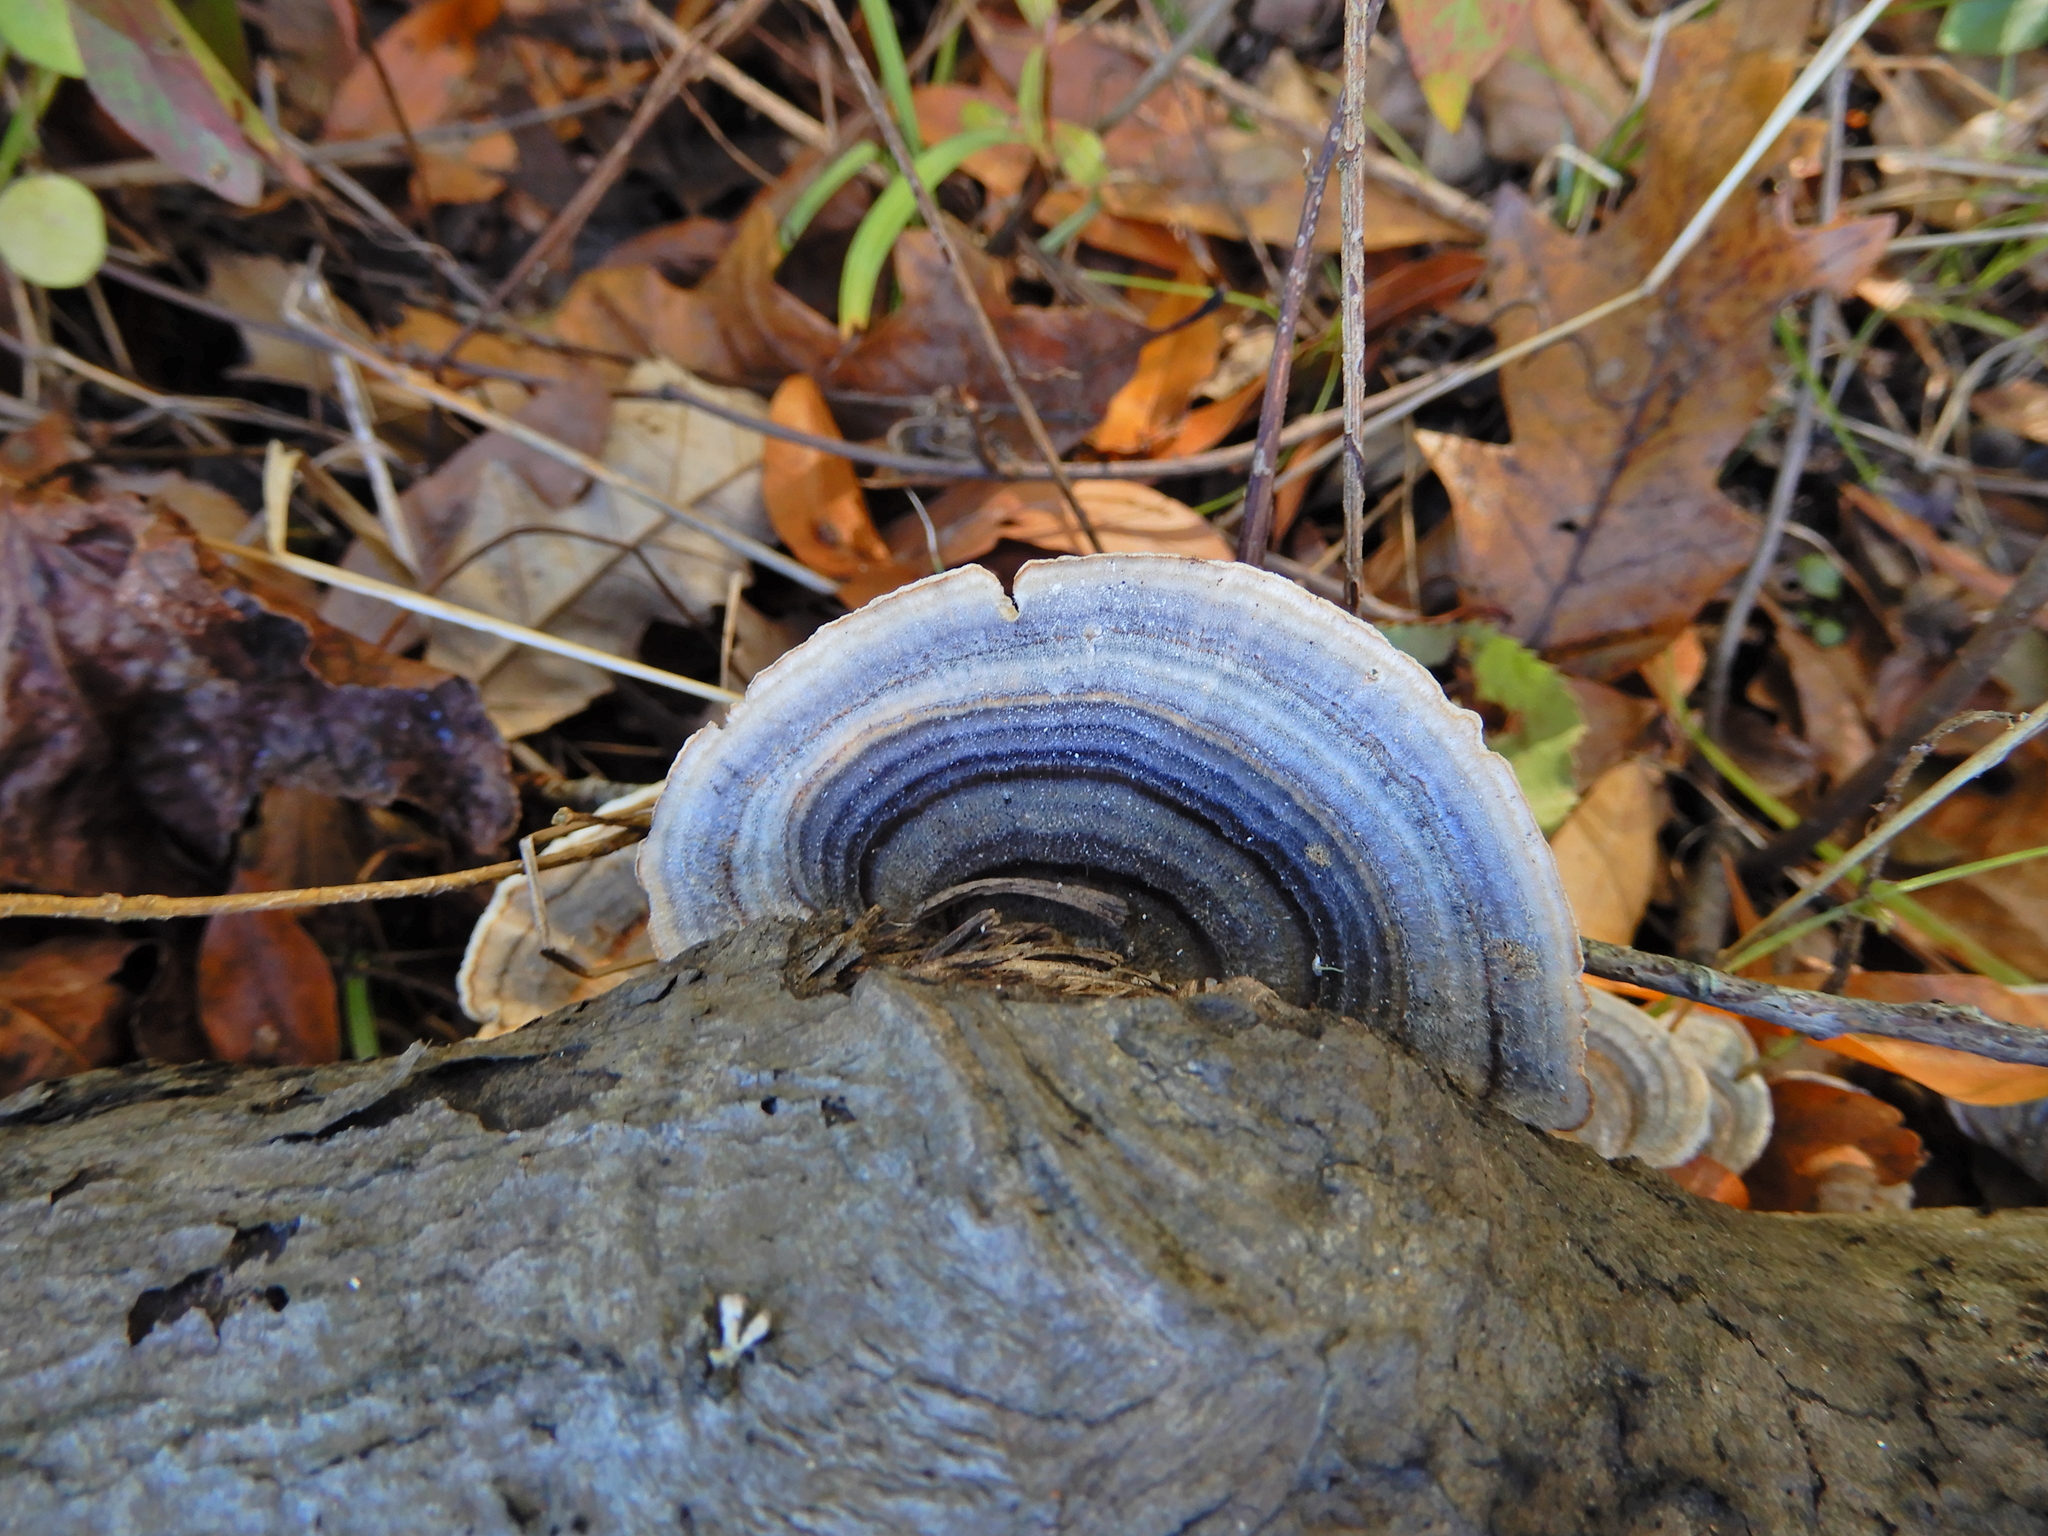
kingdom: Fungi
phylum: Basidiomycota
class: Agaricomycetes
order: Polyporales
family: Polyporaceae
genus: Trametes
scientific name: Trametes versicolor
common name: Turkeytail
